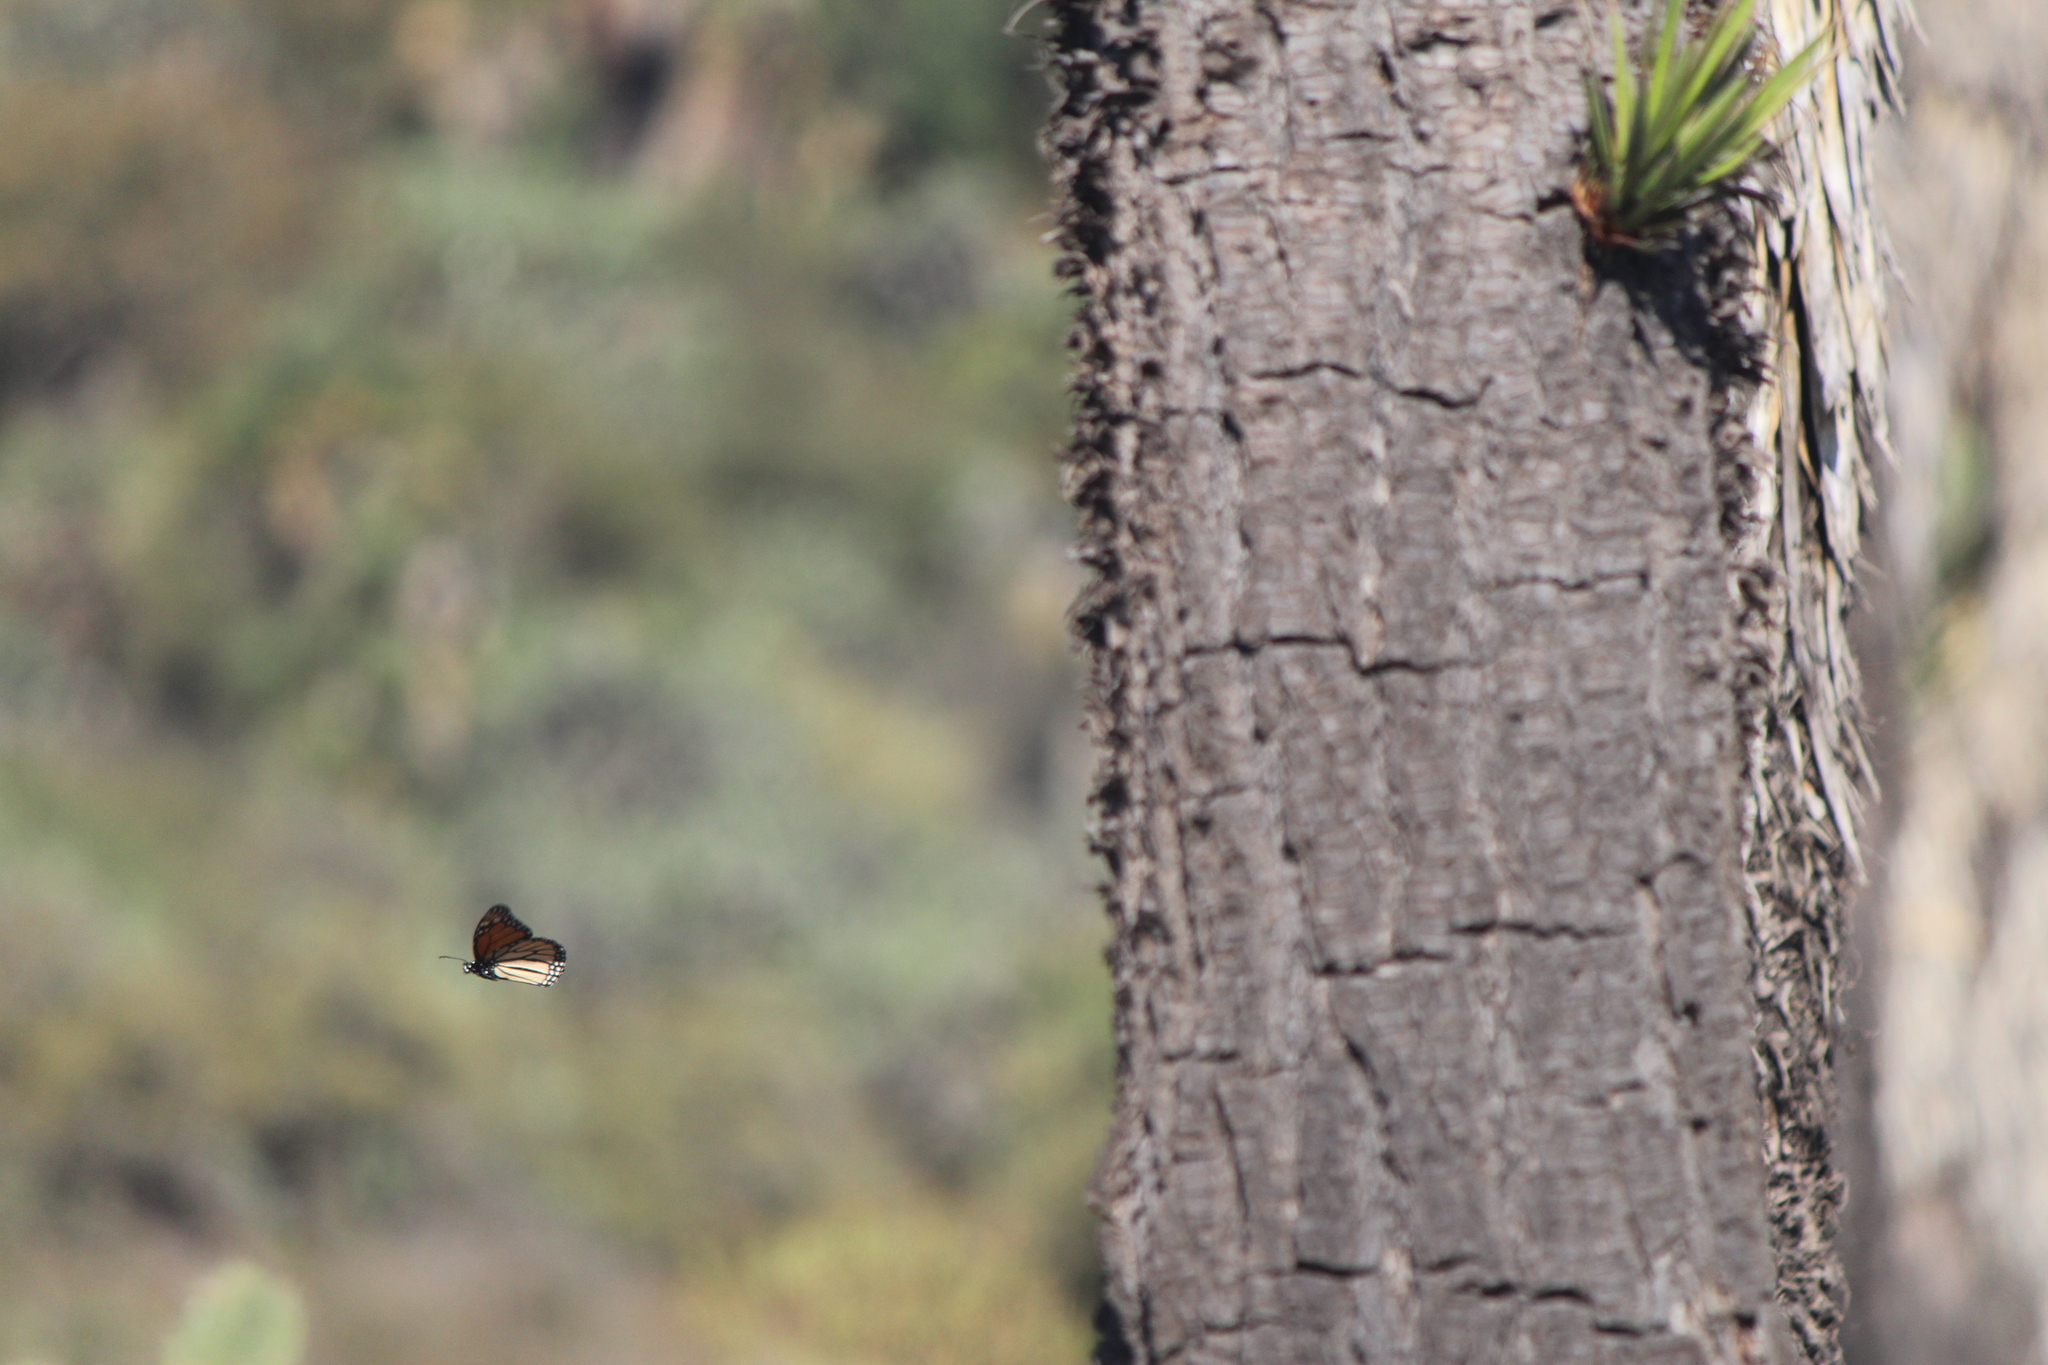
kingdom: Animalia
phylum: Arthropoda
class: Insecta
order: Lepidoptera
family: Nymphalidae
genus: Danaus
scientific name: Danaus plexippus
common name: Monarch
